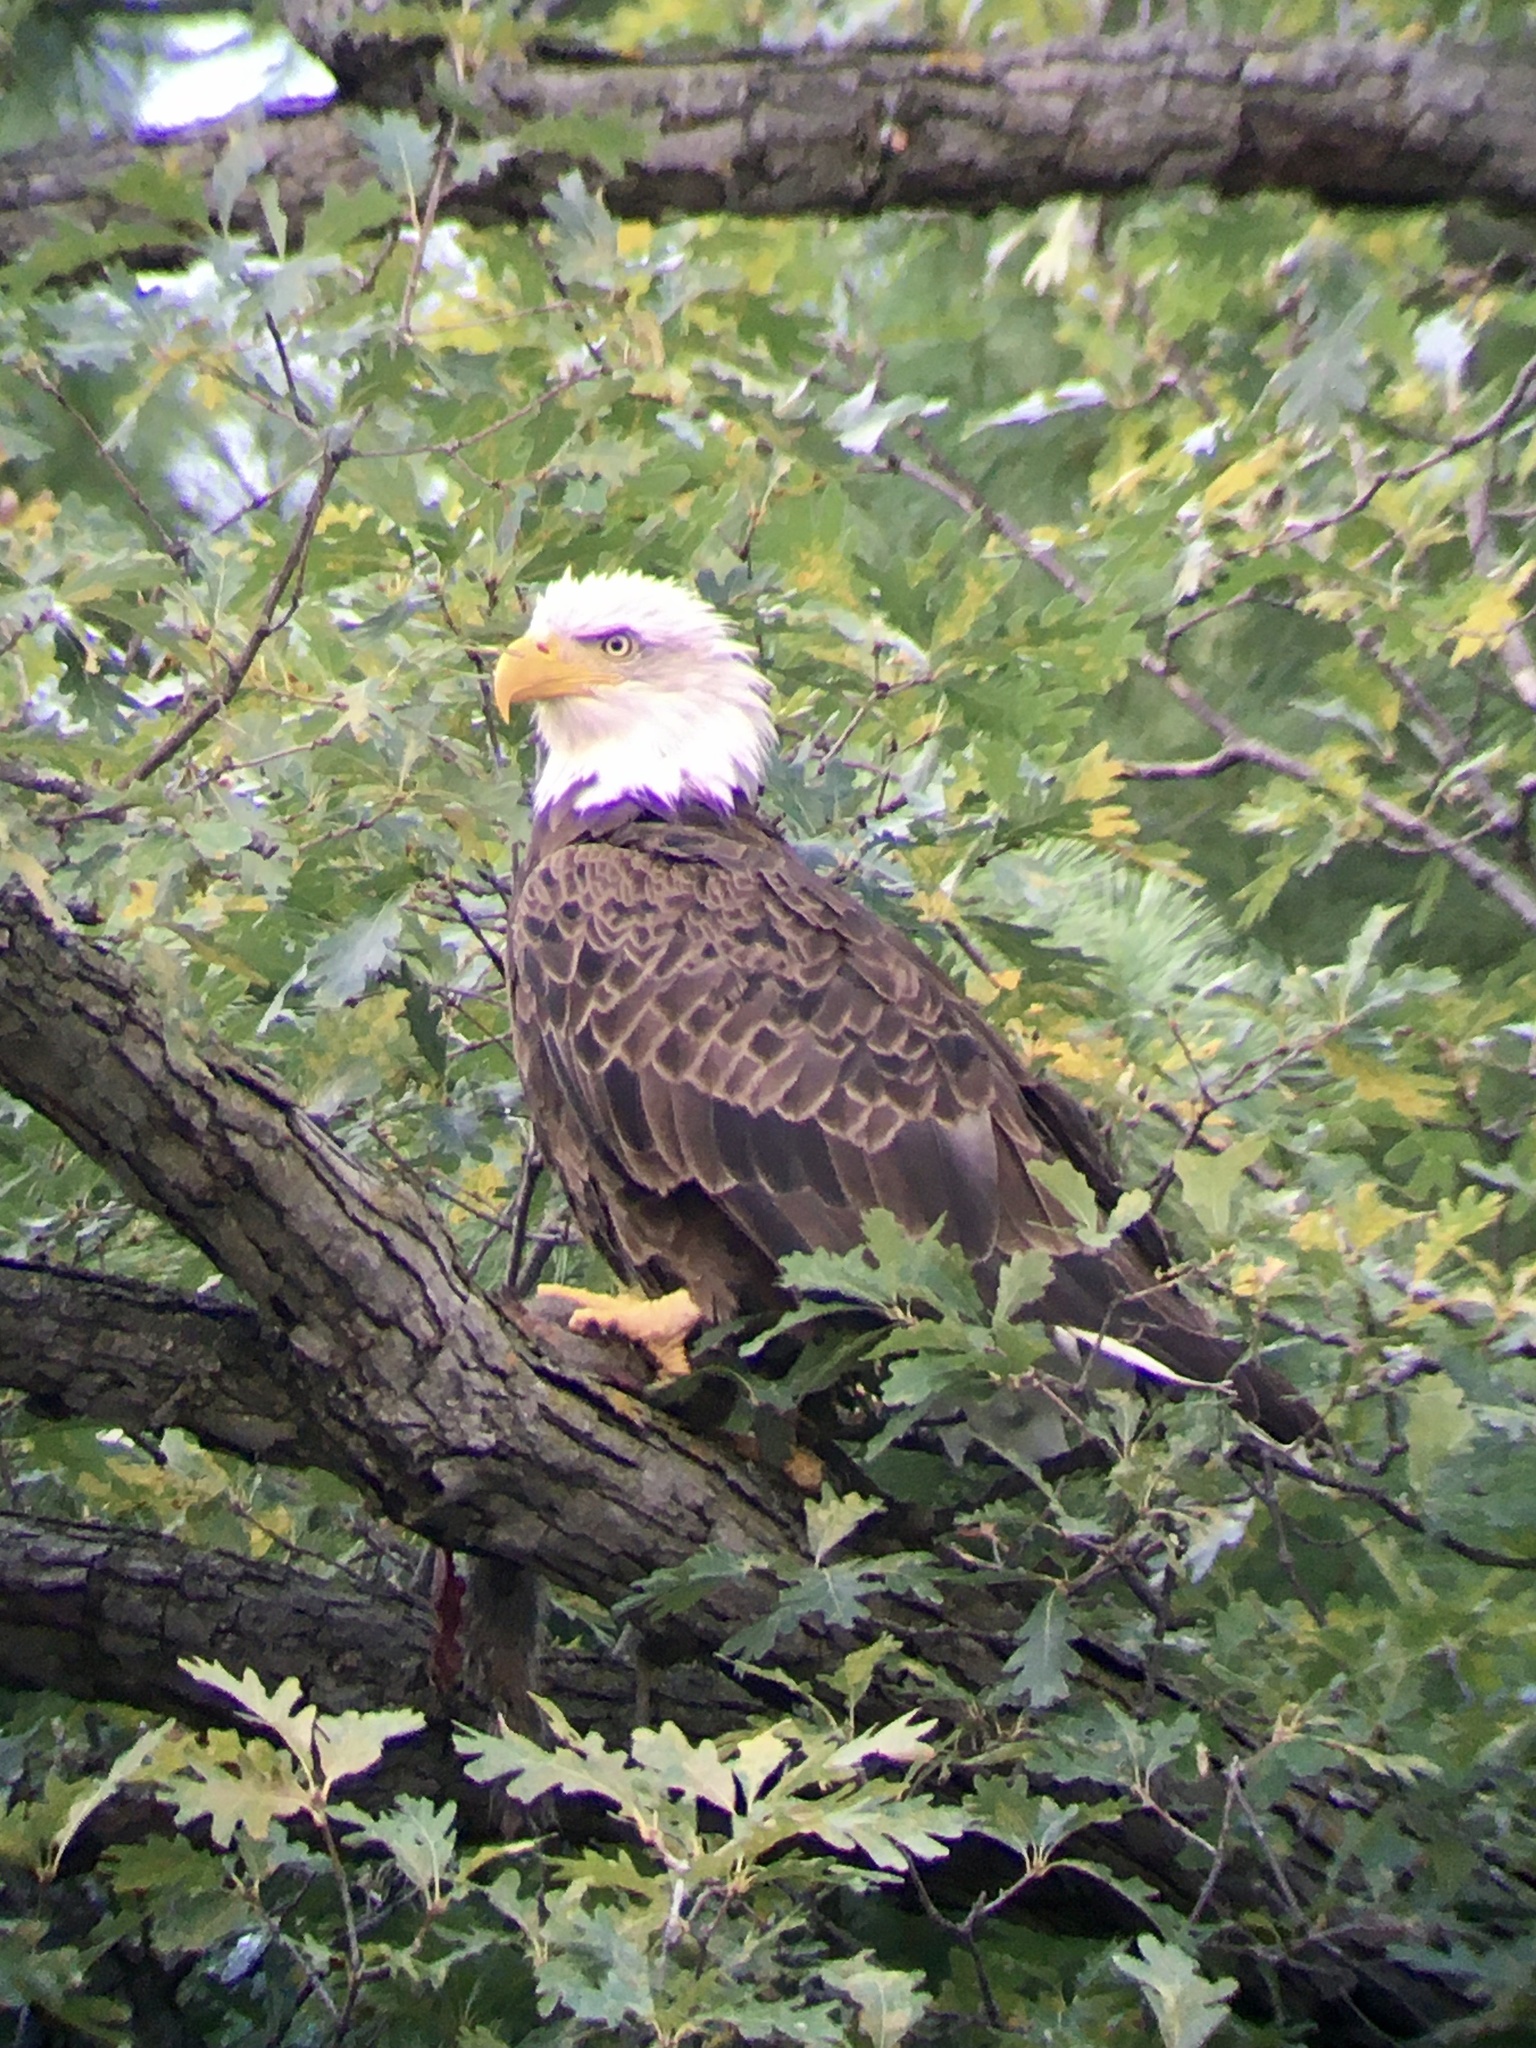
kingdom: Animalia
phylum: Chordata
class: Aves
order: Accipitriformes
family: Accipitridae
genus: Haliaeetus
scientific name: Haliaeetus leucocephalus
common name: Bald eagle
